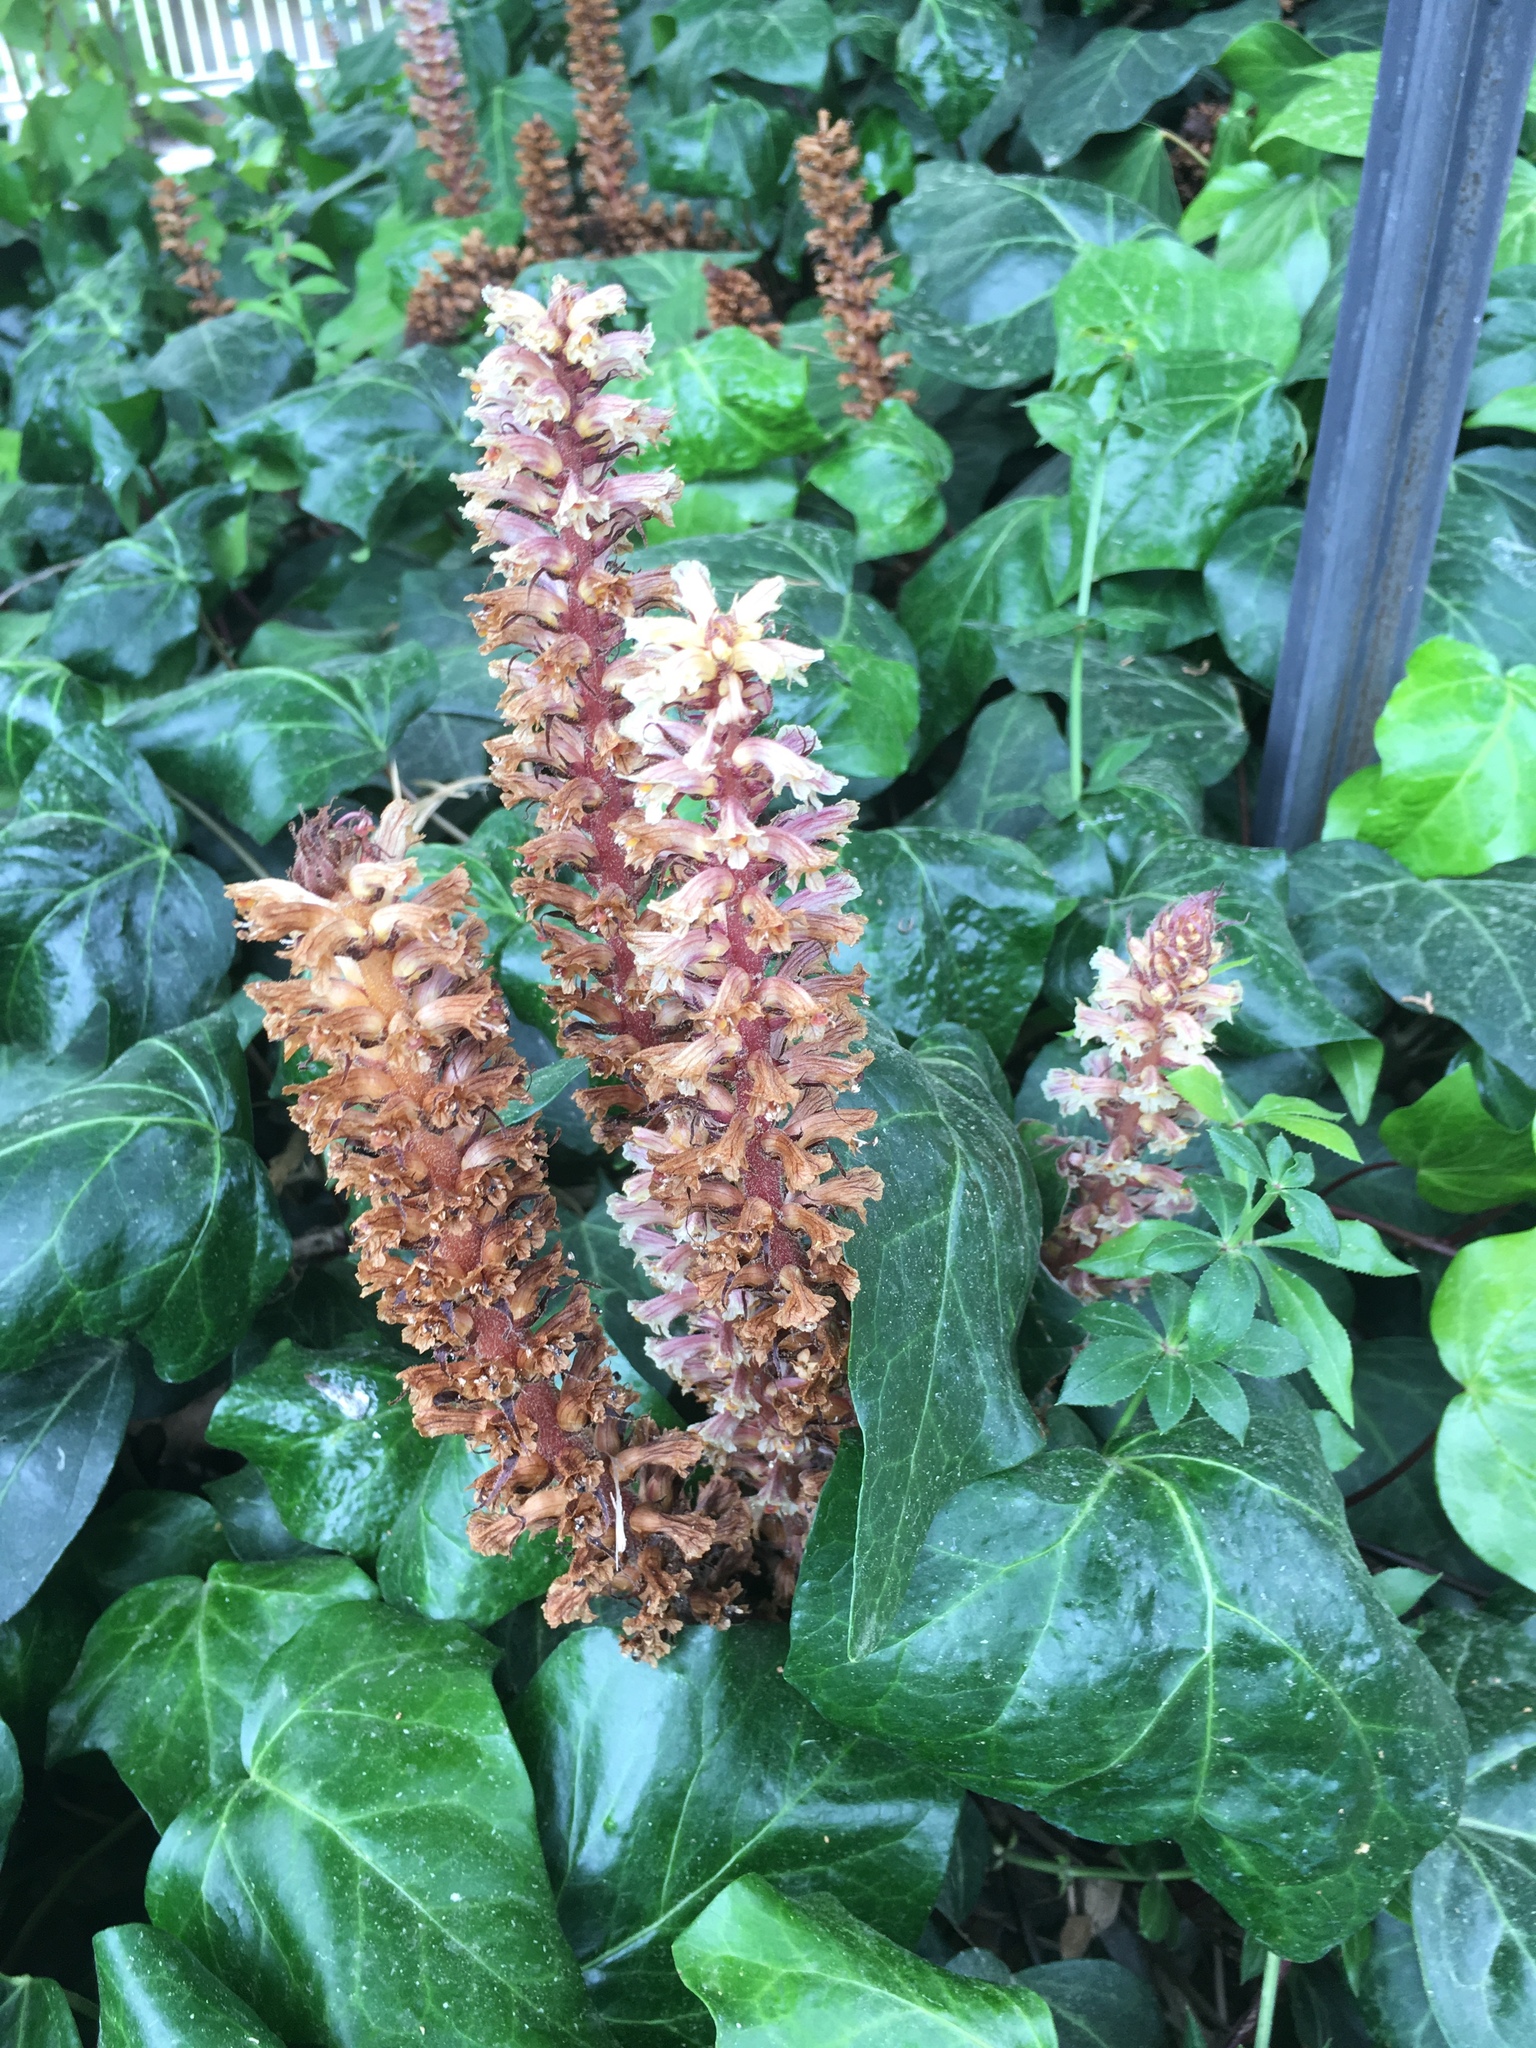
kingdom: Plantae
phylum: Tracheophyta
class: Magnoliopsida
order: Lamiales
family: Orobanchaceae
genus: Orobanche
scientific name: Orobanche hederae
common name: Ivy broomrape
